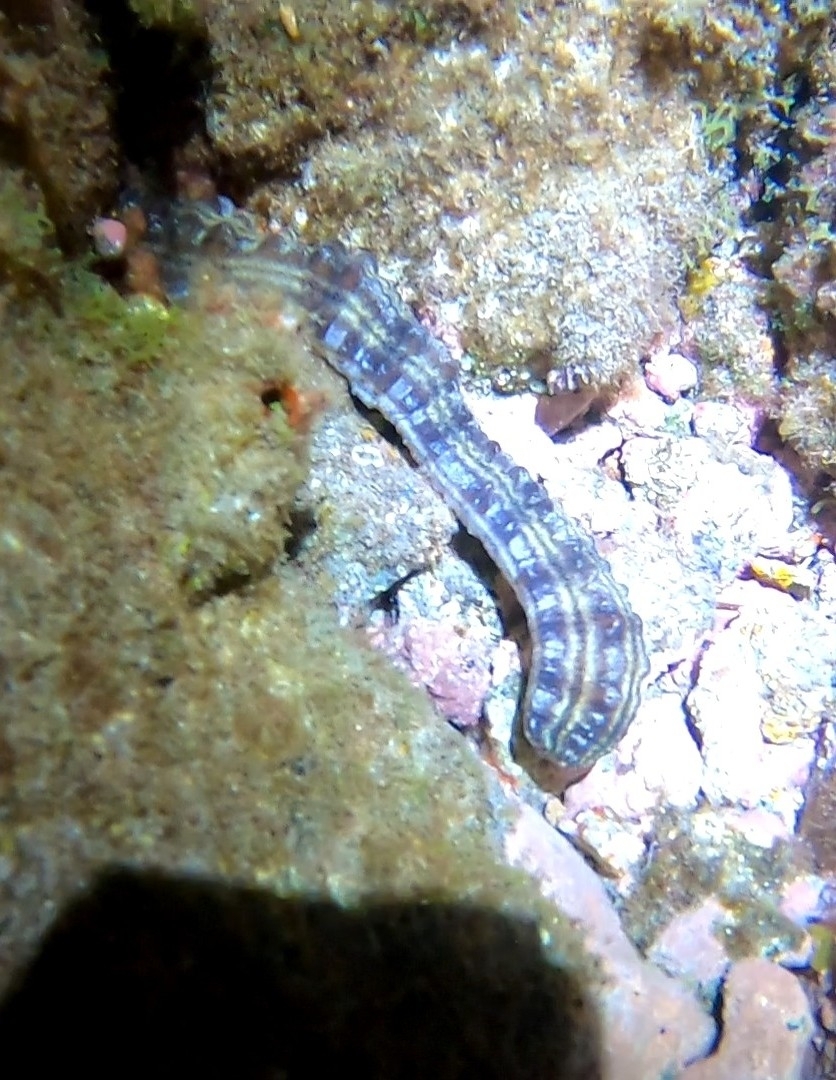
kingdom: Animalia
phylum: Echinodermata
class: Holothuroidea
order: Apodida
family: Synaptidae
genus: Euapta
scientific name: Euapta lappa
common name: Sticky-skinned sea cucumber
